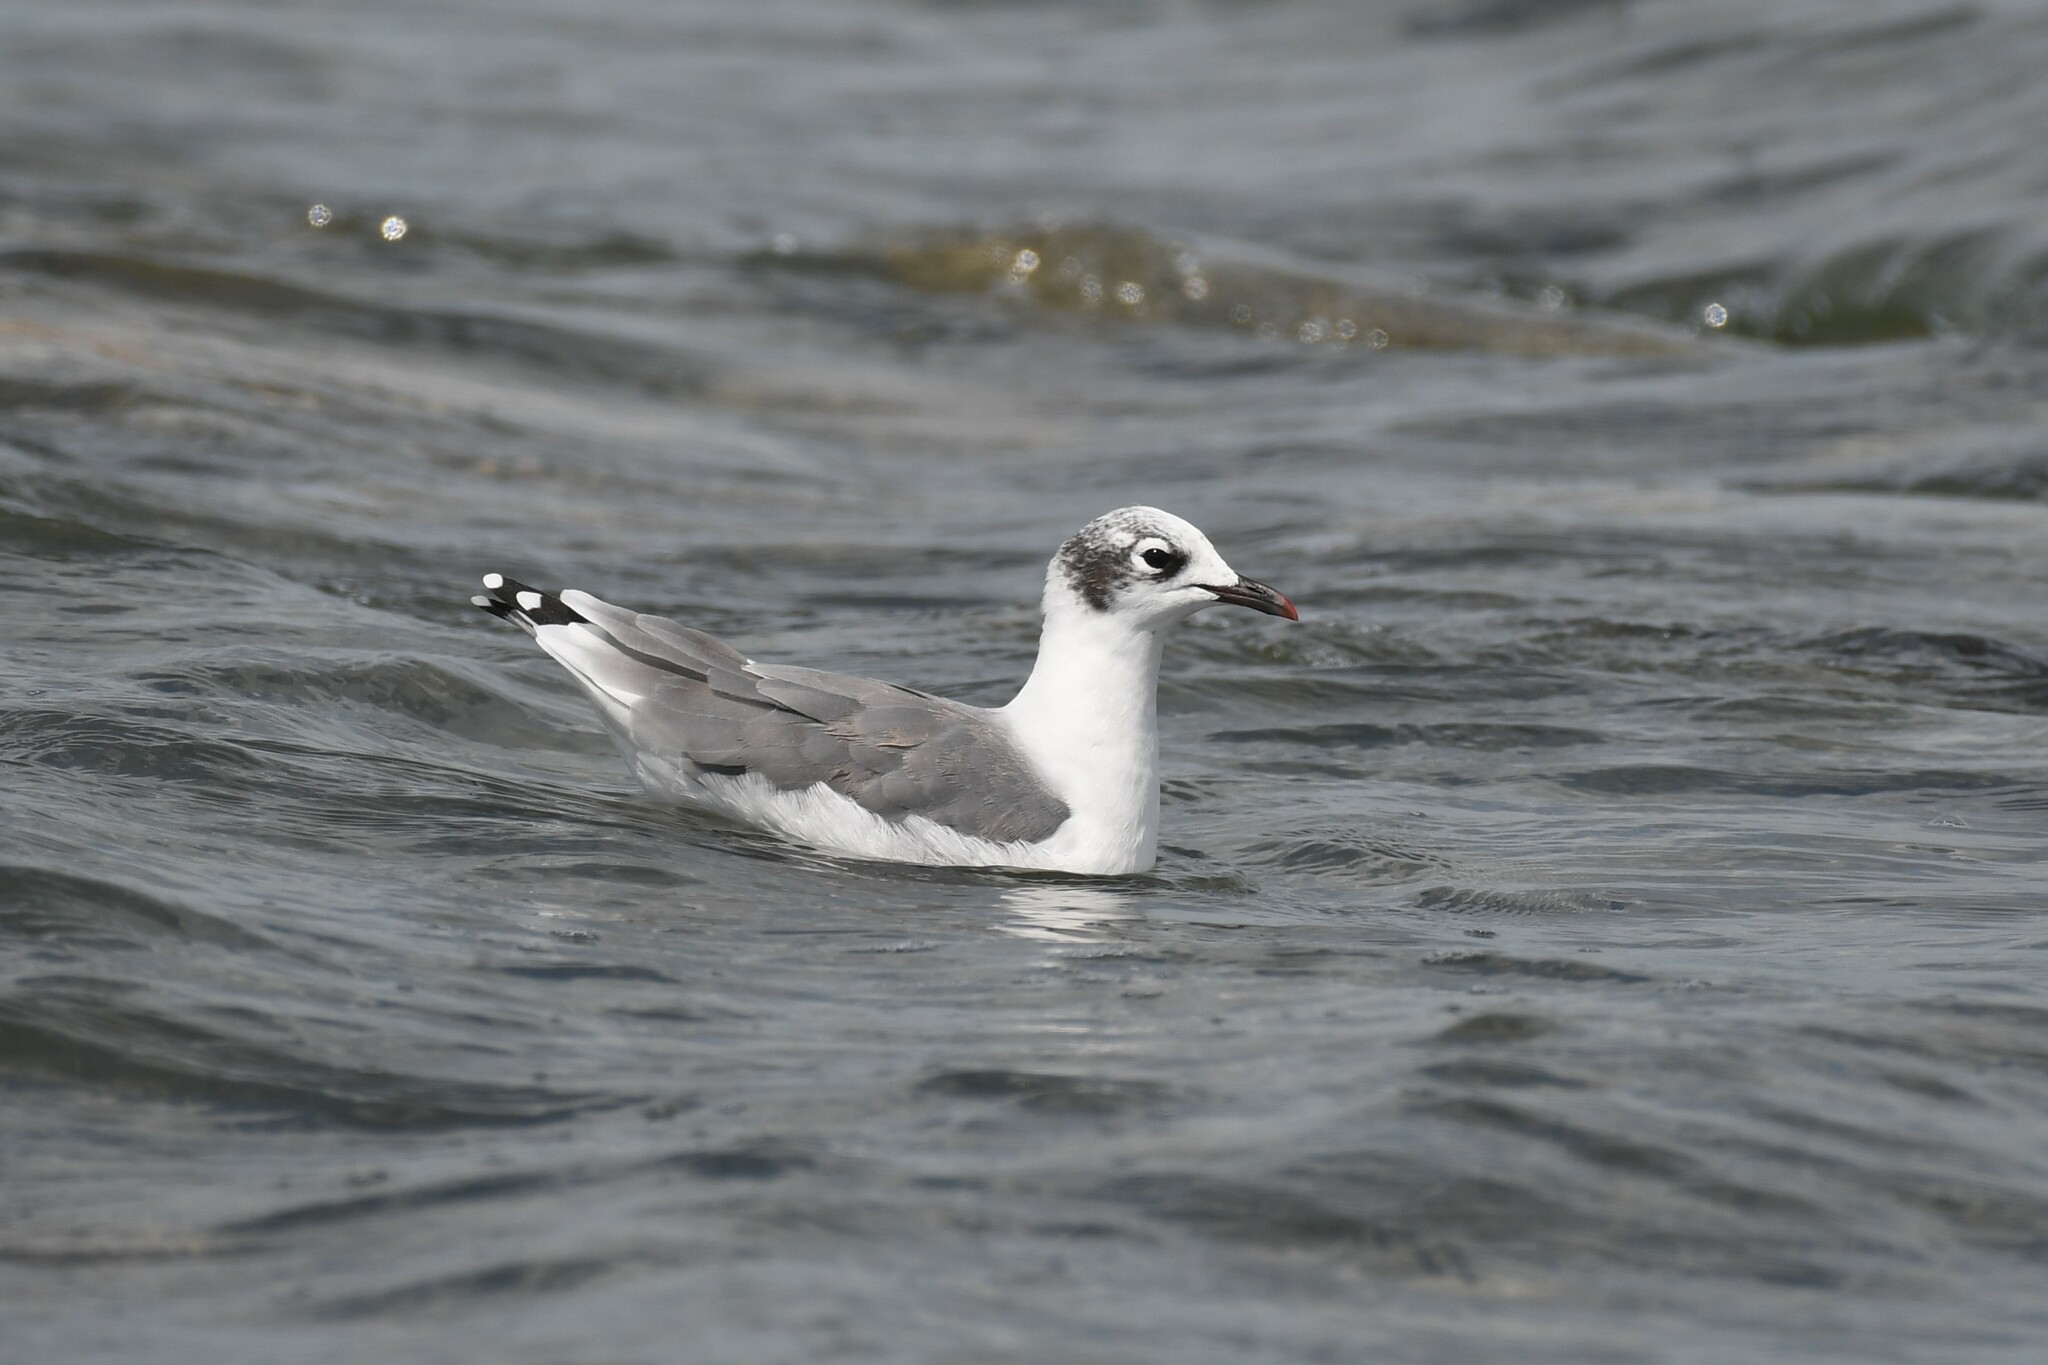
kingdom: Animalia
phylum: Chordata
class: Aves
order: Charadriiformes
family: Laridae
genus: Leucophaeus
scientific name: Leucophaeus pipixcan
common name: Franklin's gull
